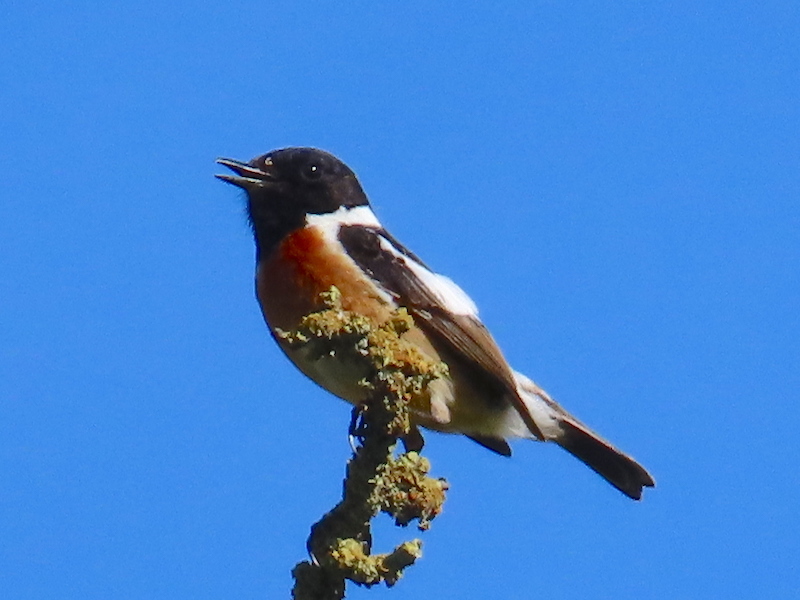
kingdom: Animalia
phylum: Chordata
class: Aves
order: Passeriformes
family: Muscicapidae
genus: Saxicola
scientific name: Saxicola rubicola
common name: European stonechat
